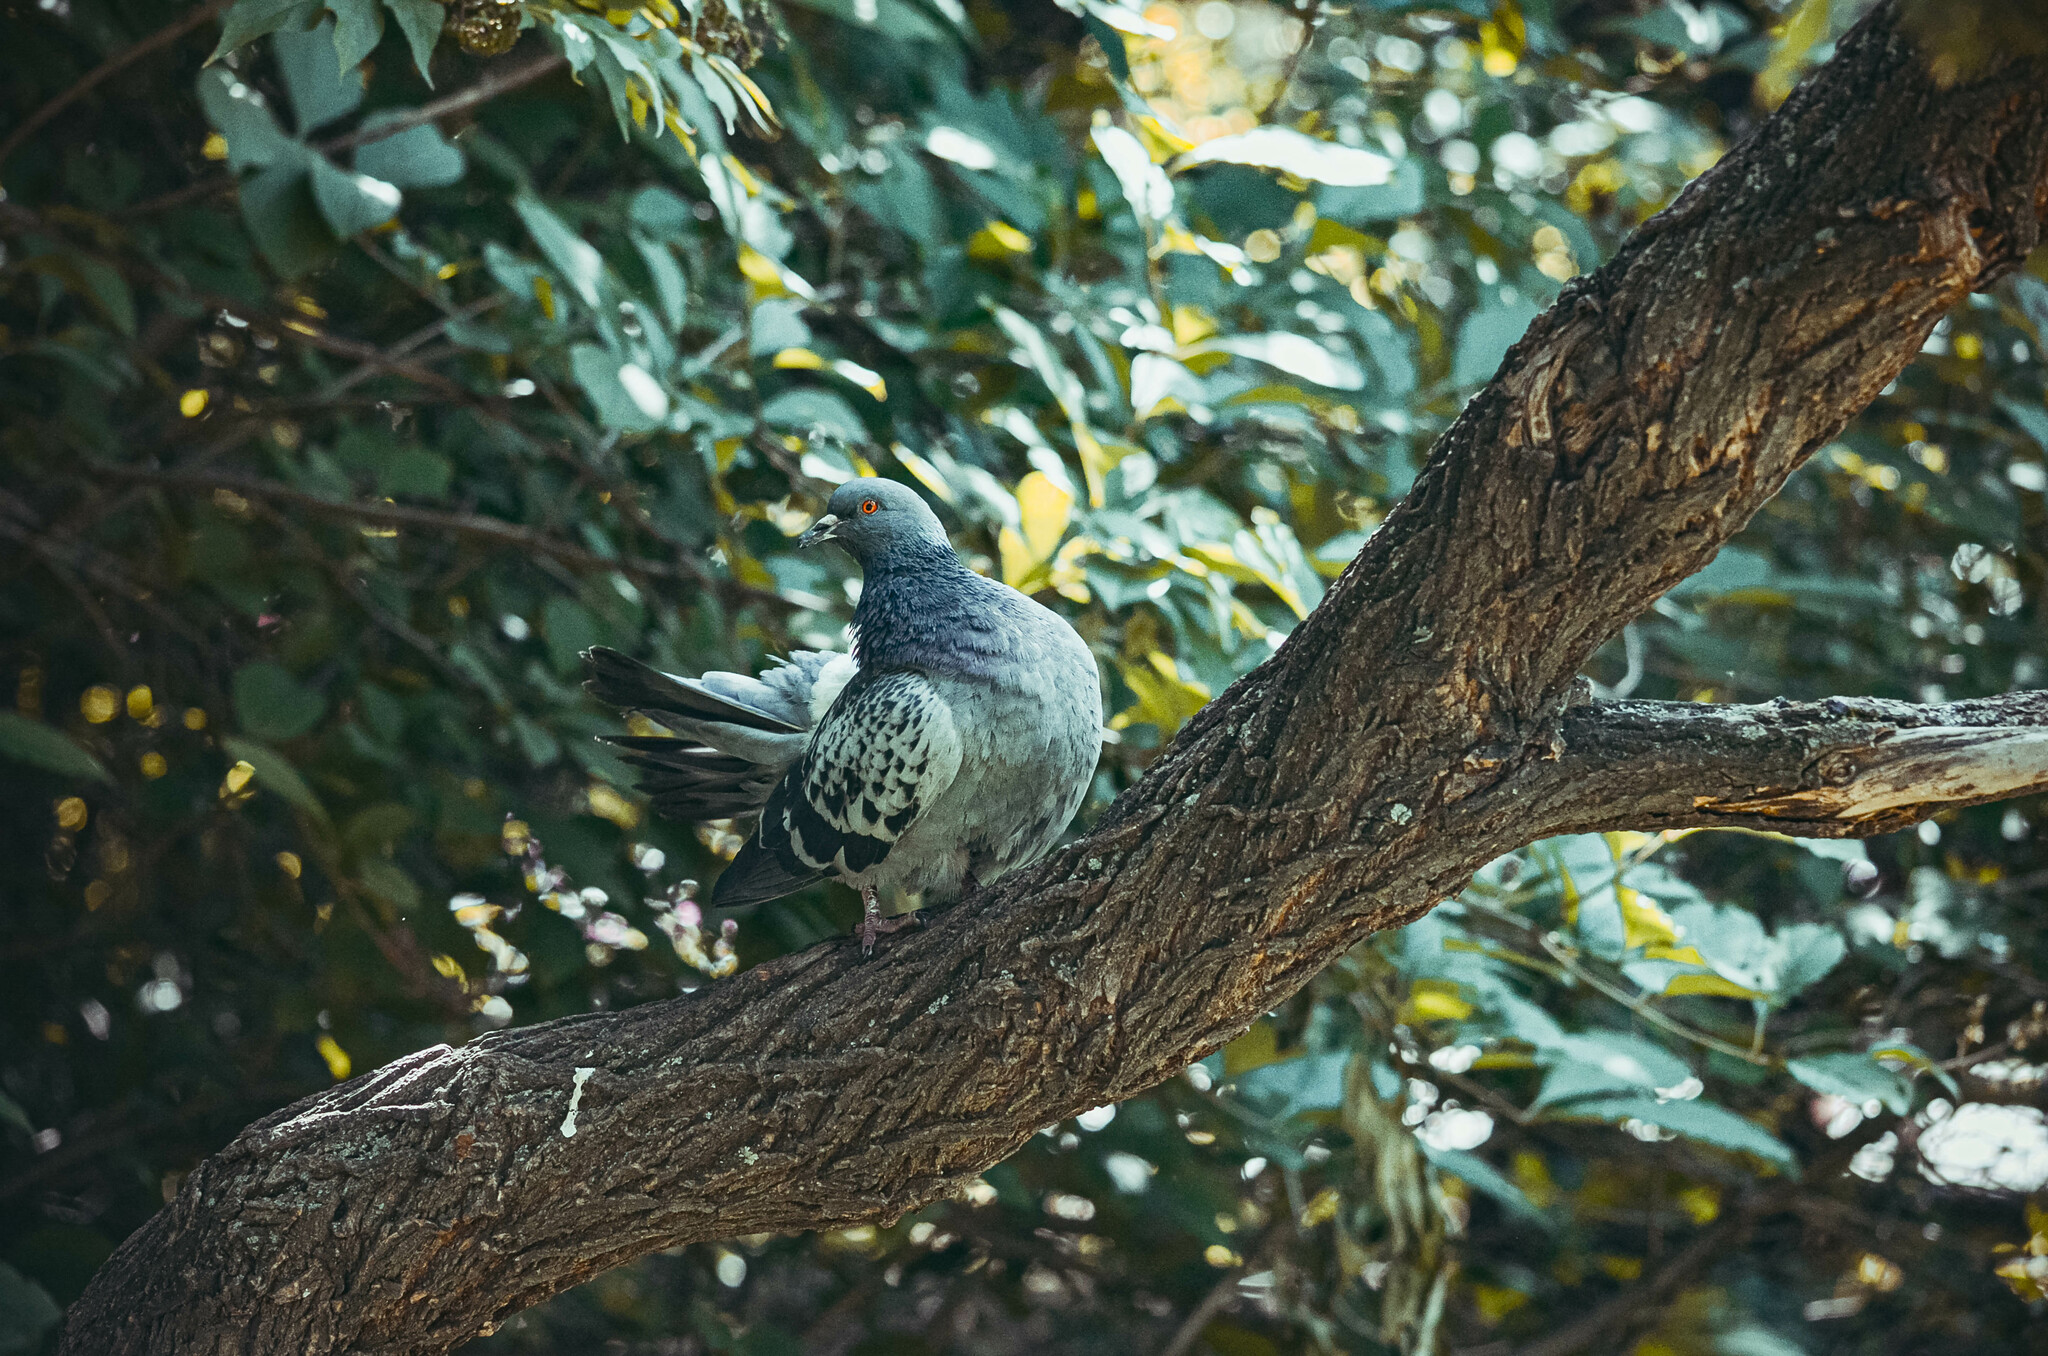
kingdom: Animalia
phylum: Chordata
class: Aves
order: Columbiformes
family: Columbidae
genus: Columba
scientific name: Columba livia
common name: Rock pigeon
